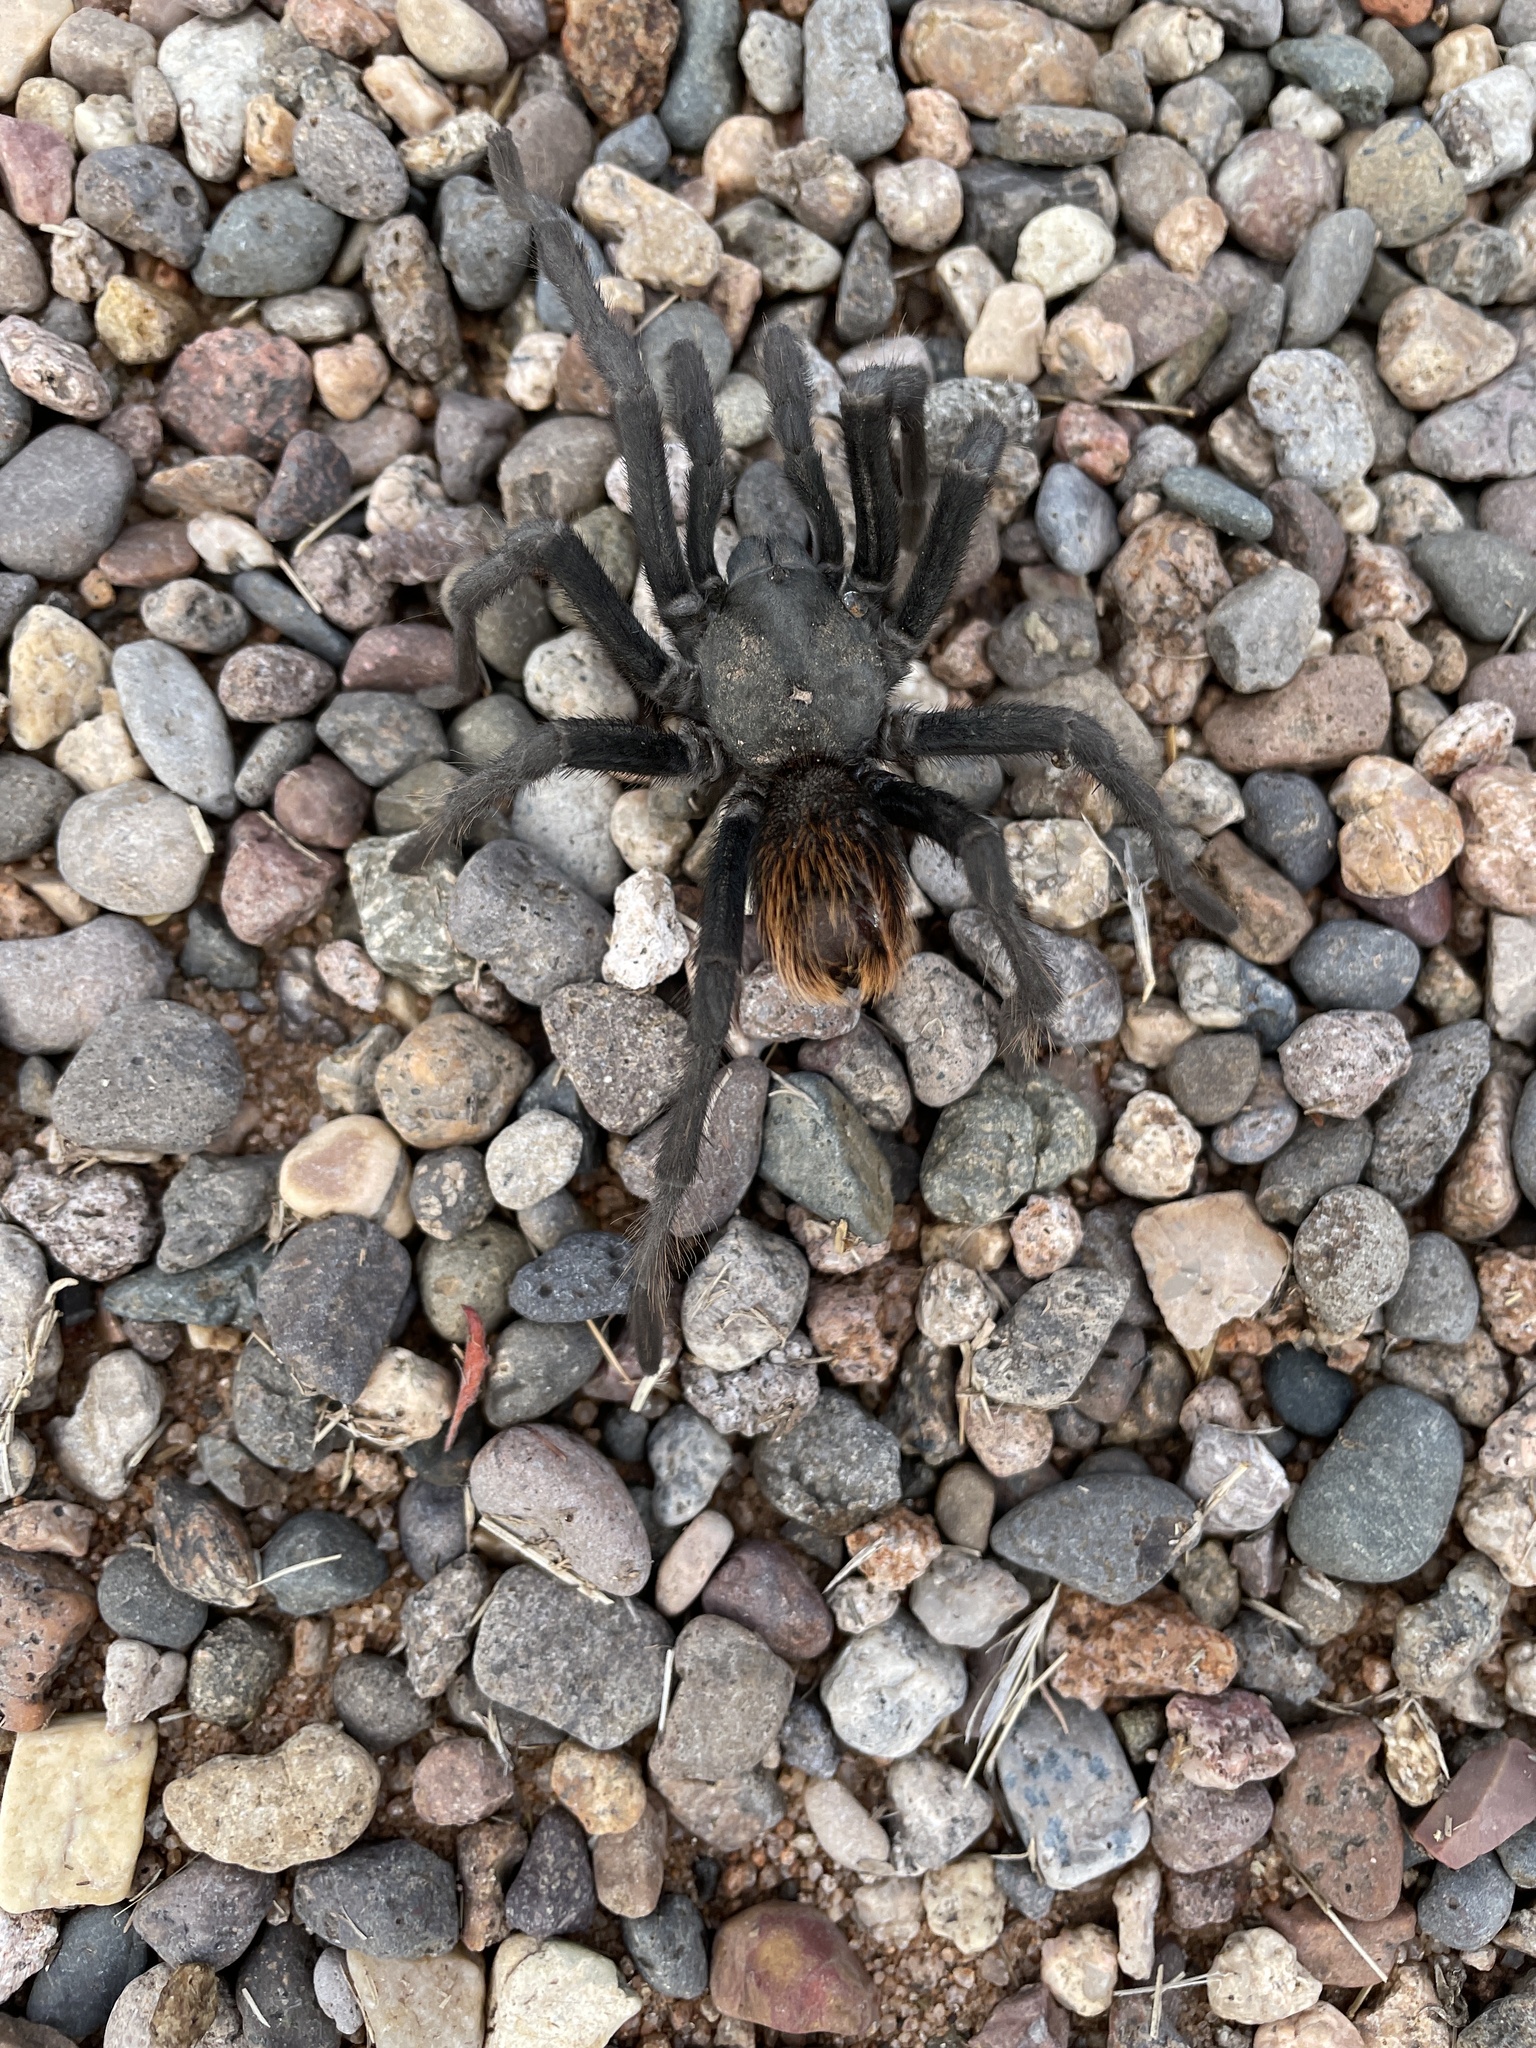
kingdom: Animalia
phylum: Arthropoda
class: Arachnida
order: Araneae
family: Theraphosidae
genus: Aphonopelma
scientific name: Aphonopelma vorhiesi
